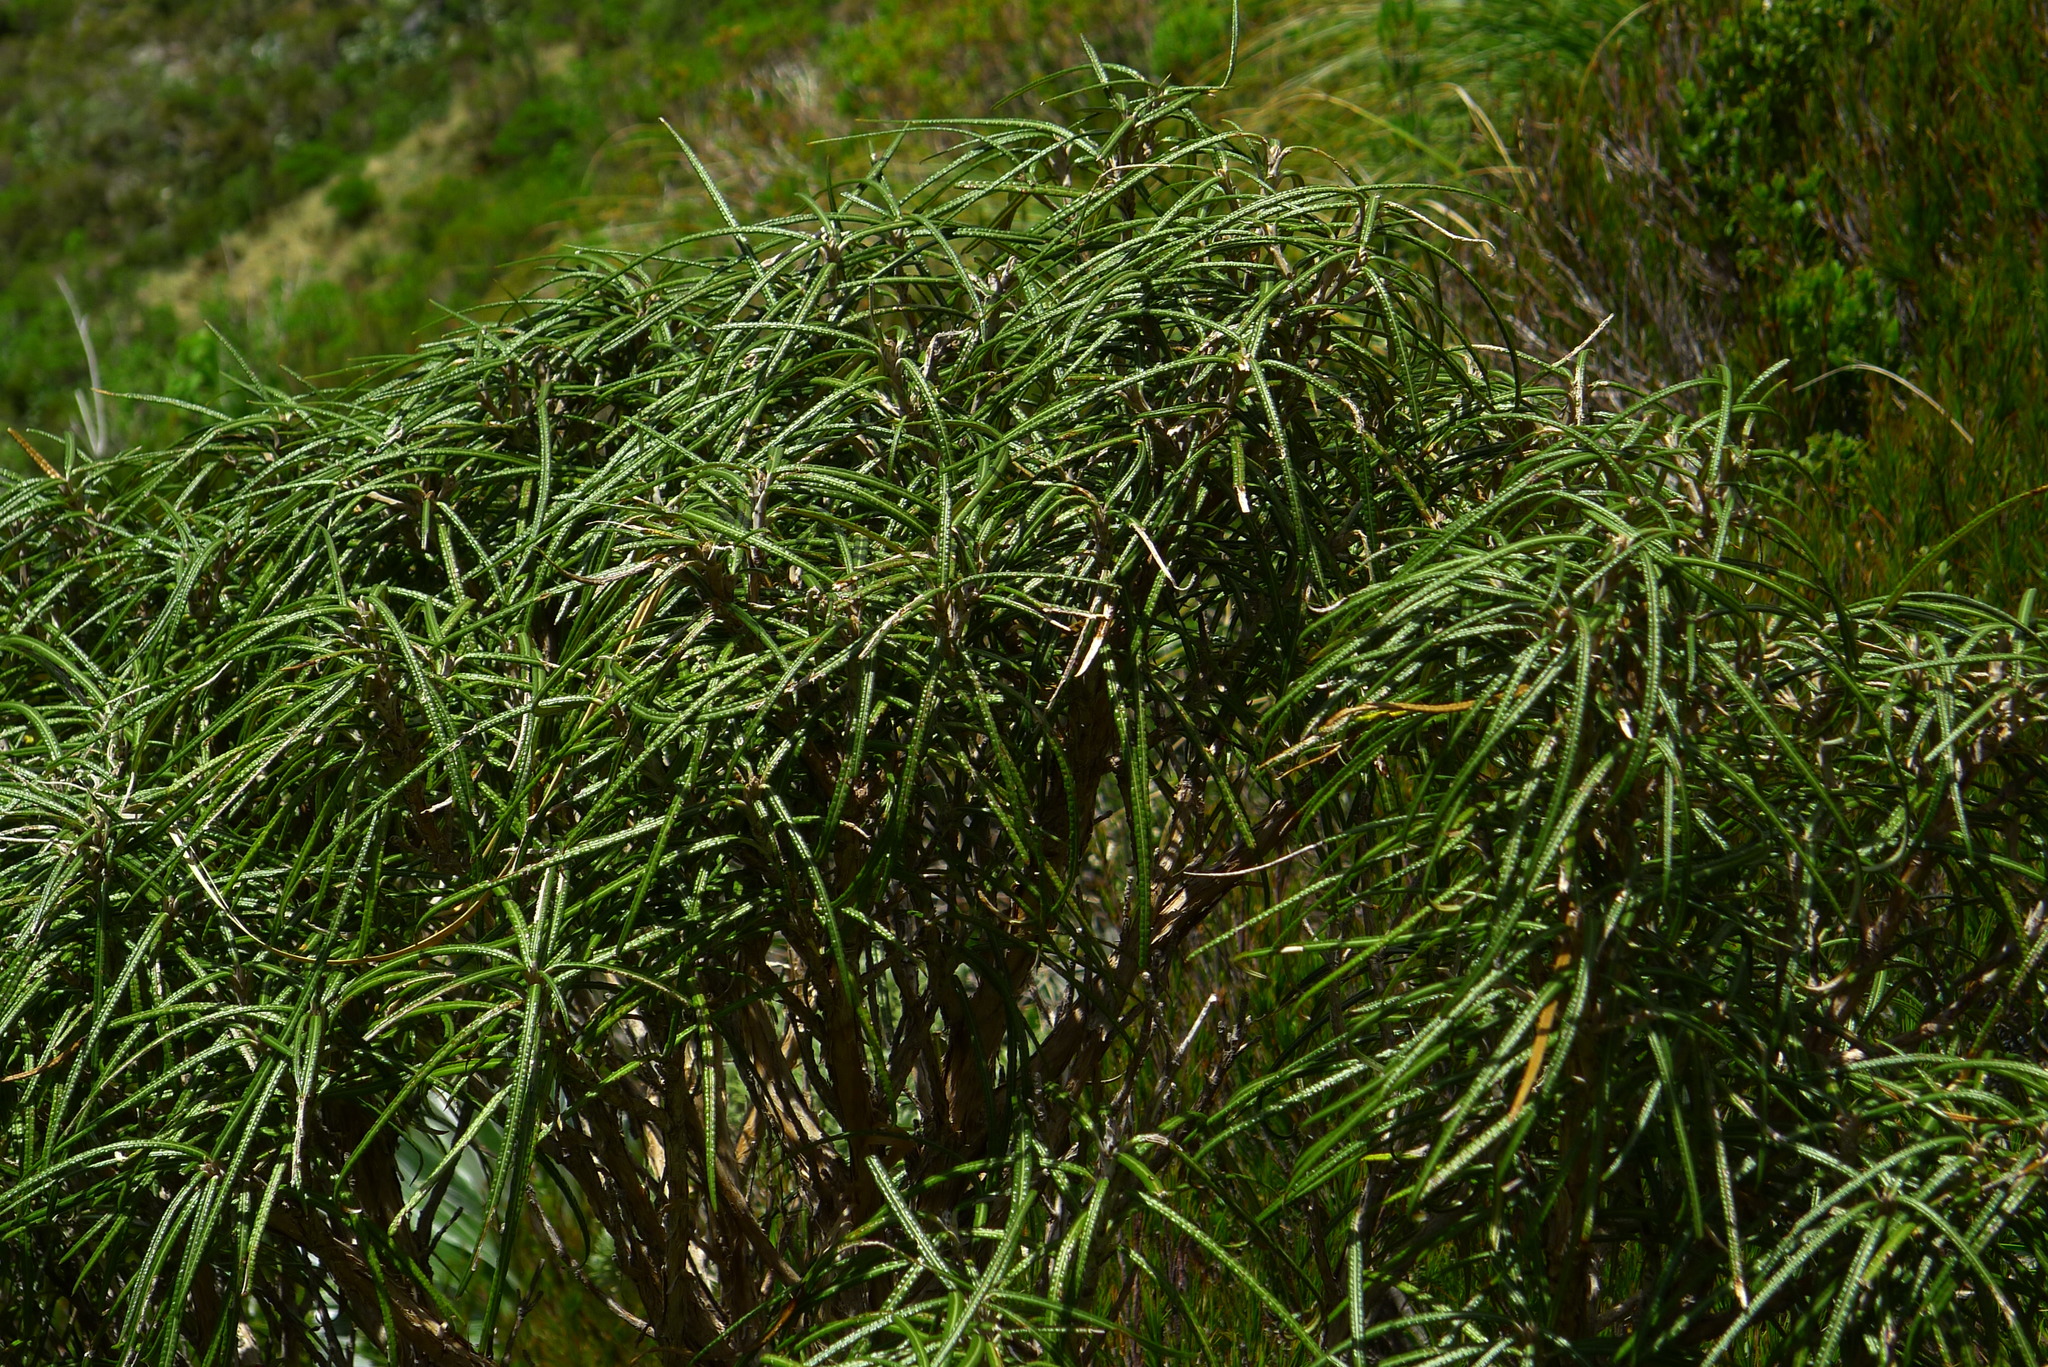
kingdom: Plantae
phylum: Tracheophyta
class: Magnoliopsida
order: Asterales
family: Asteraceae
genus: Olearia
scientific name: Olearia lacunosa
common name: Lancewood tree daisy
